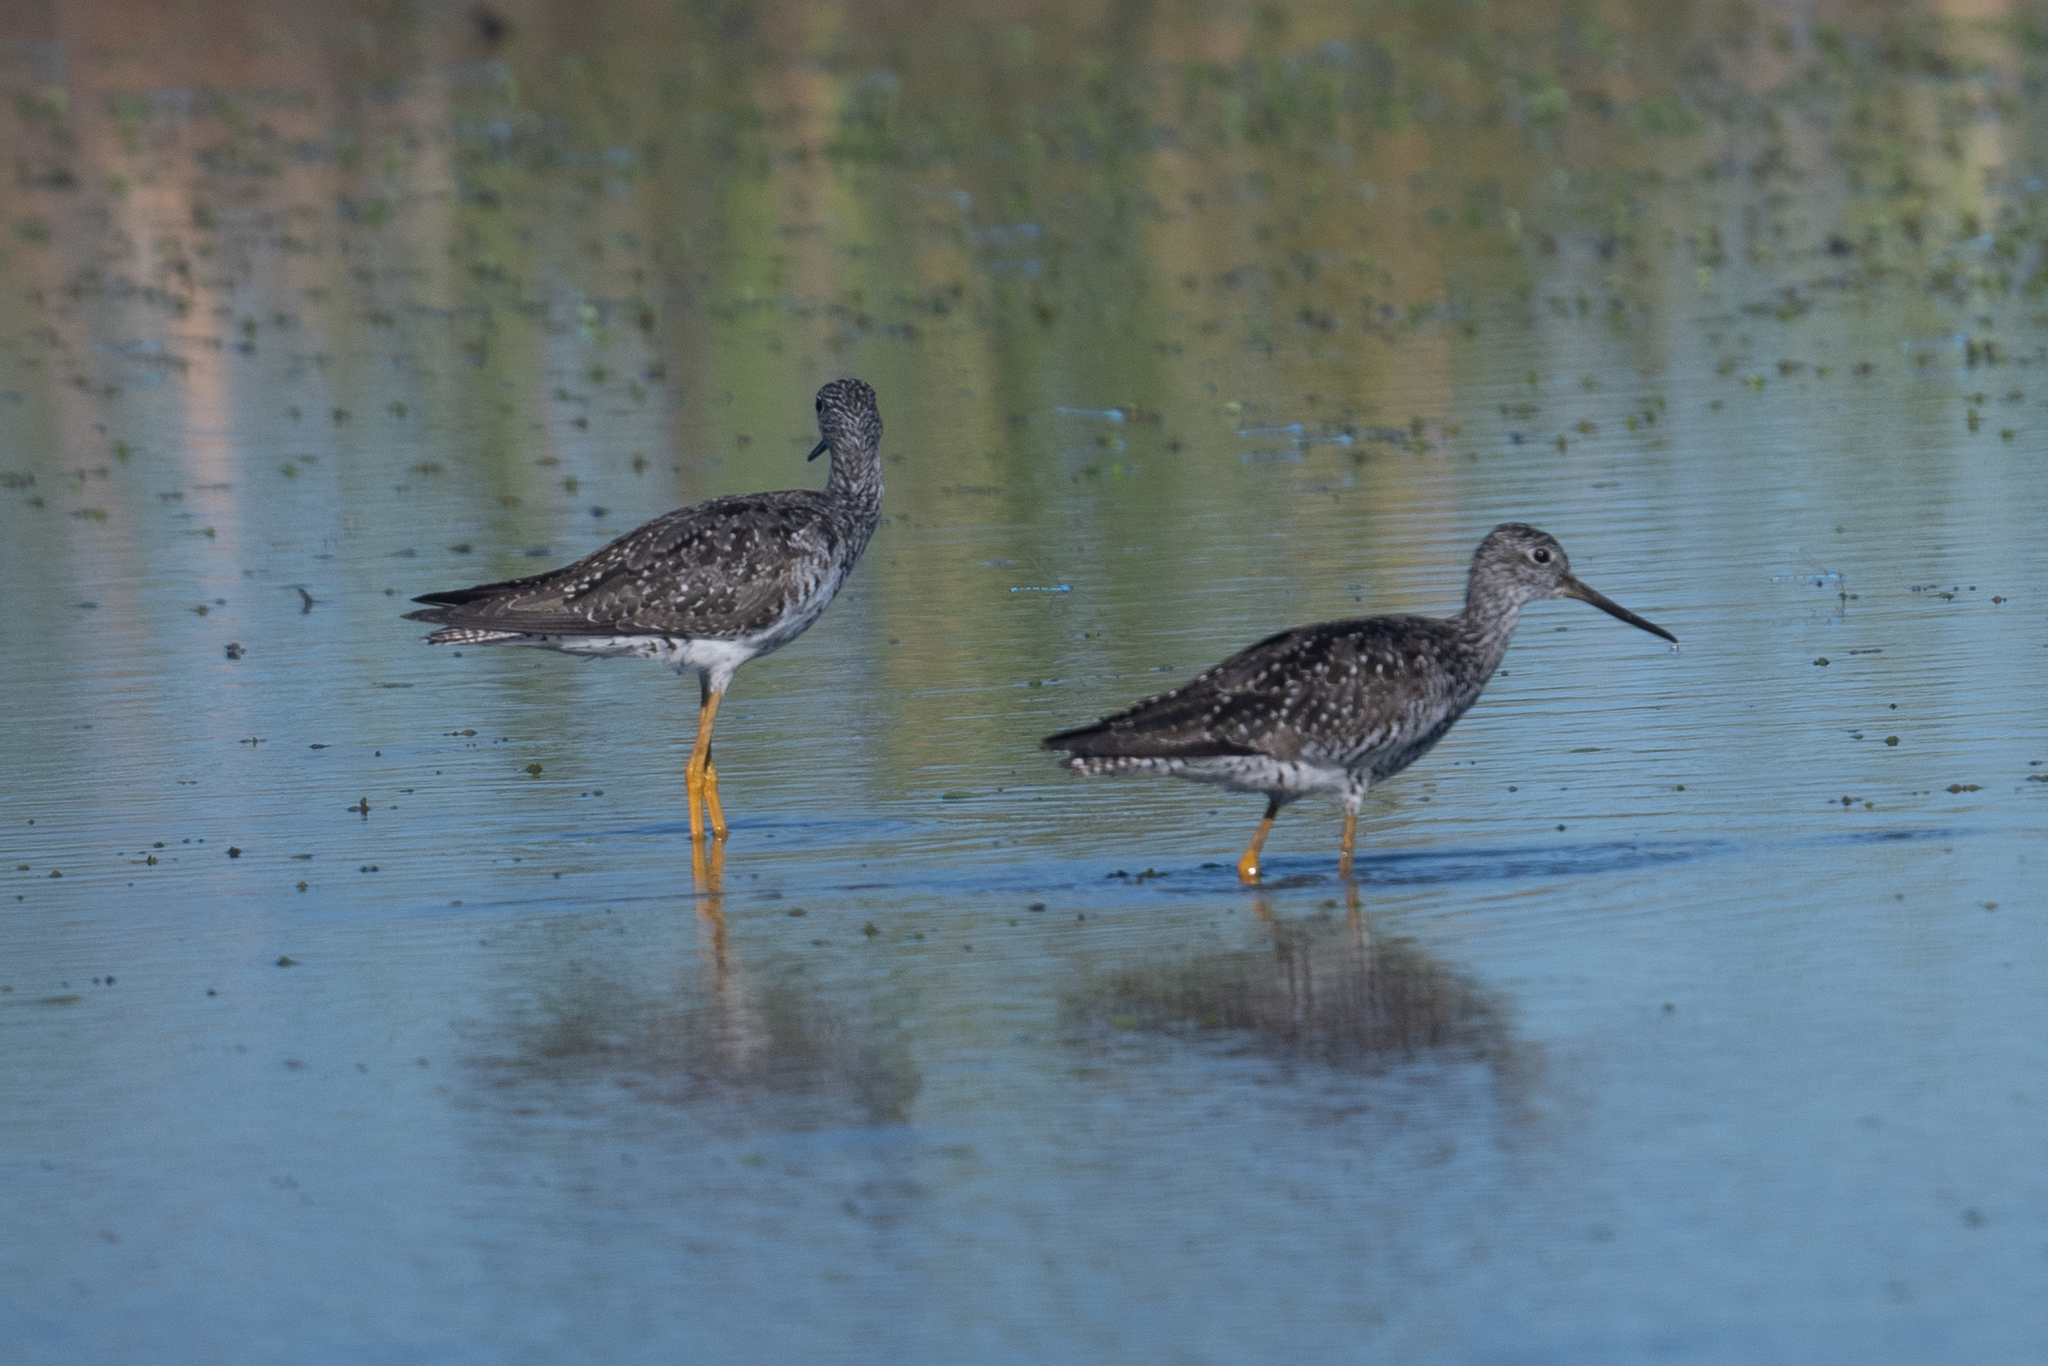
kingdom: Animalia
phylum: Chordata
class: Aves
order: Charadriiformes
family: Scolopacidae
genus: Tringa
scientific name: Tringa melanoleuca
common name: Greater yellowlegs
